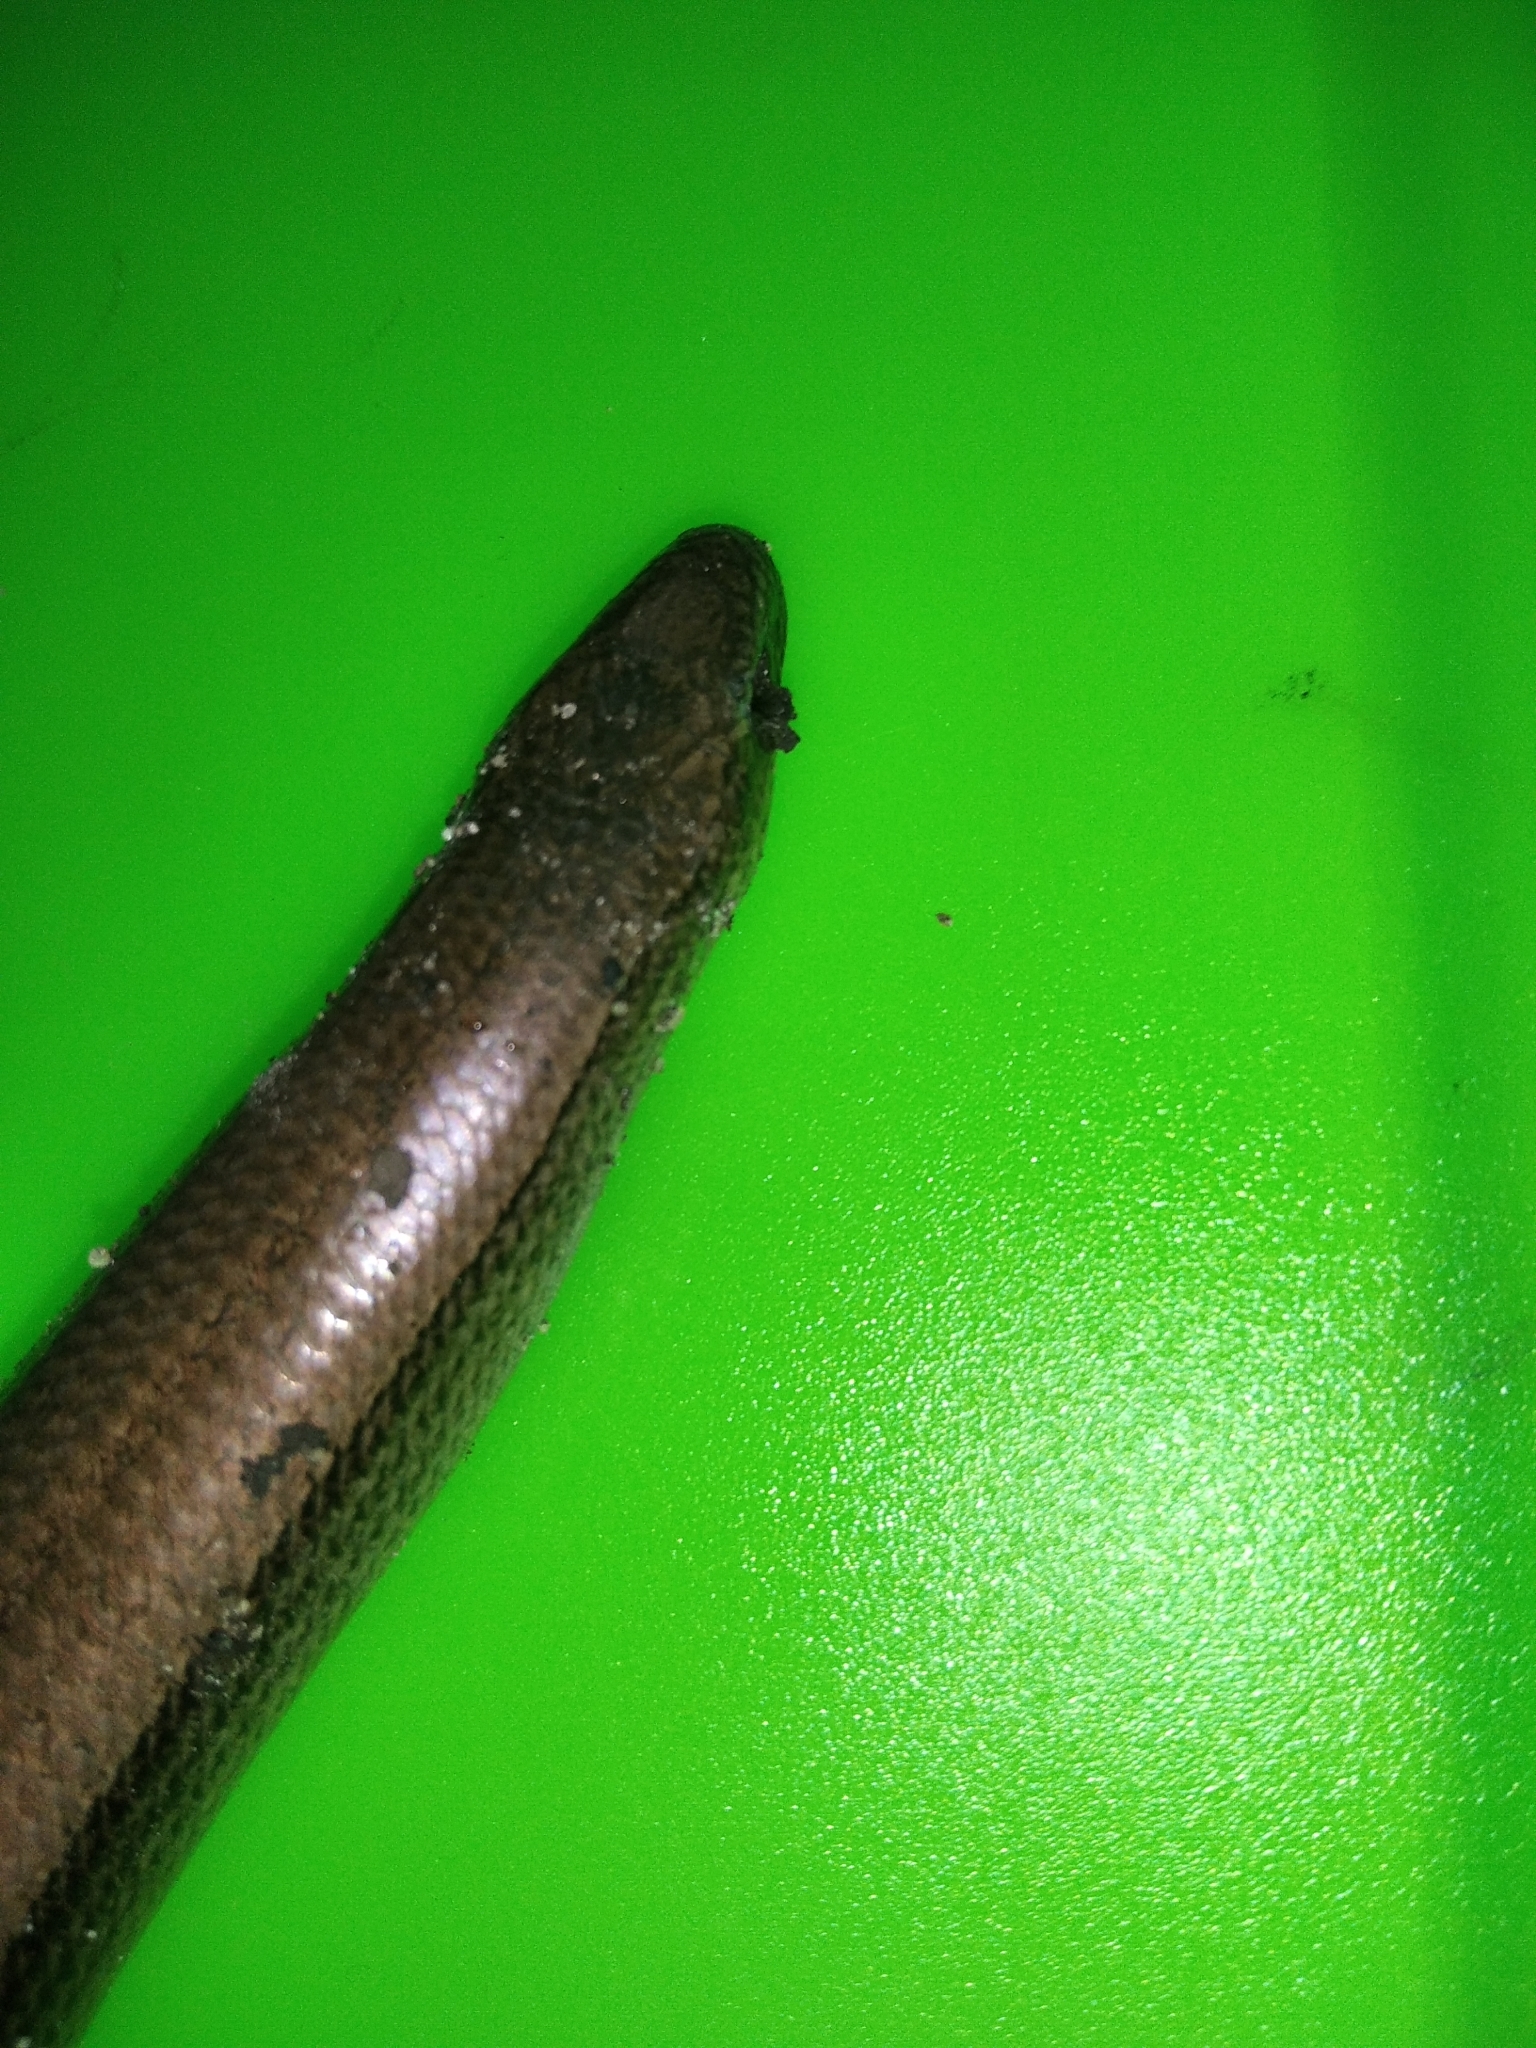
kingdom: Animalia
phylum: Chordata
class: Squamata
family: Anguidae
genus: Anguis
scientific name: Anguis colchica
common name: Slow worm
